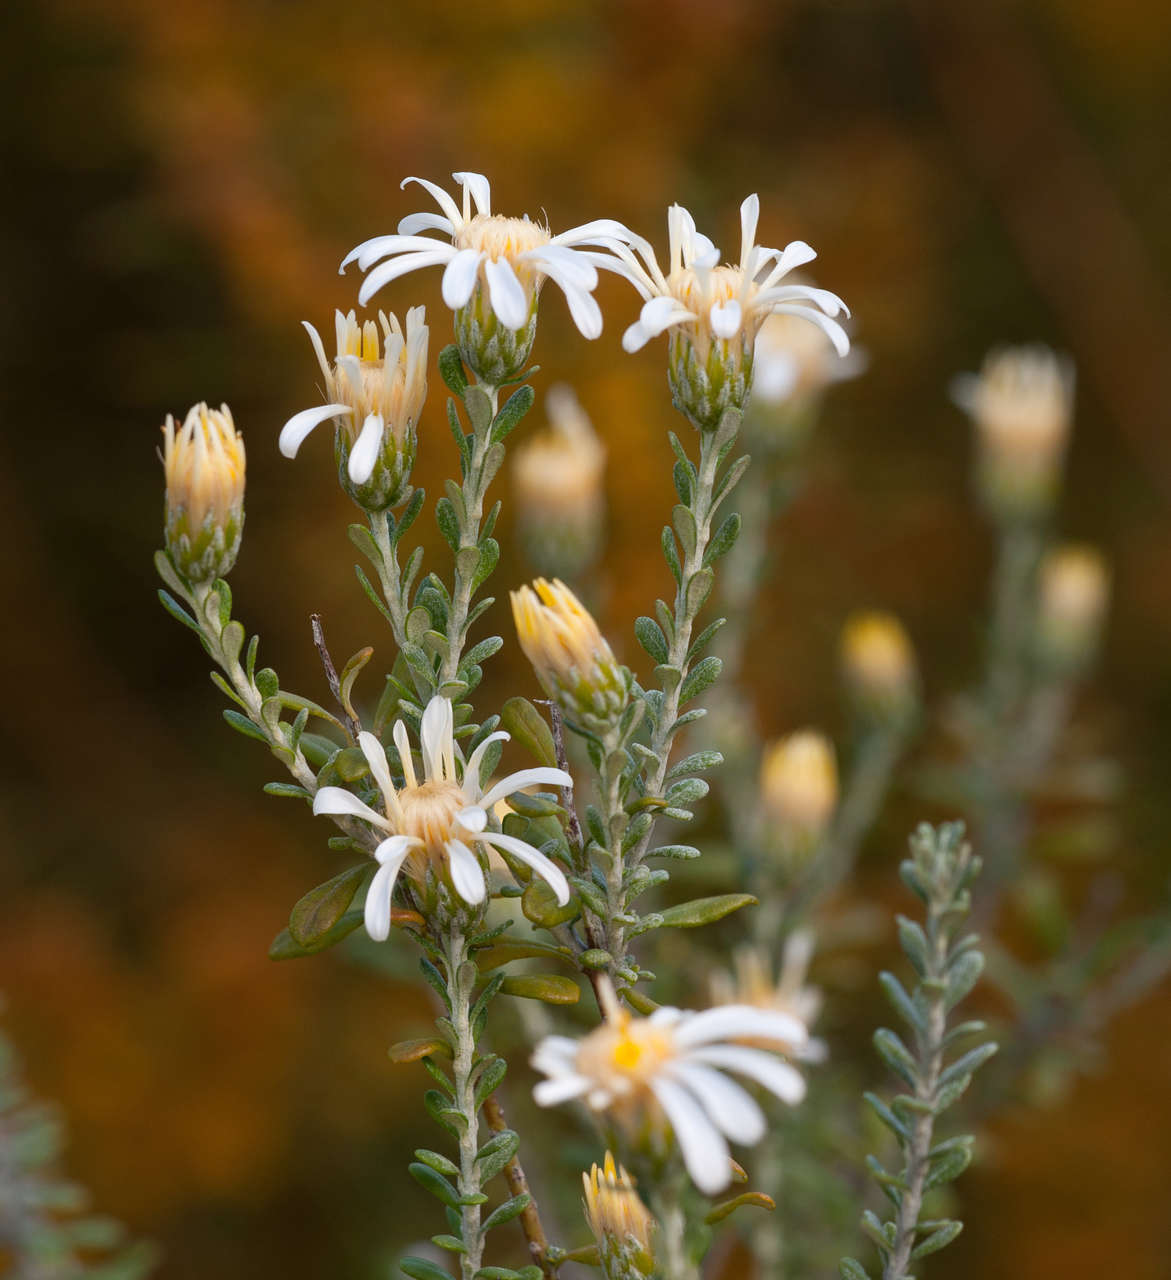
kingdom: Plantae
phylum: Tracheophyta
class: Magnoliopsida
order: Asterales
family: Asteraceae
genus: Olearia
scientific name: Olearia pimeleoides
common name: Showy daisybush
